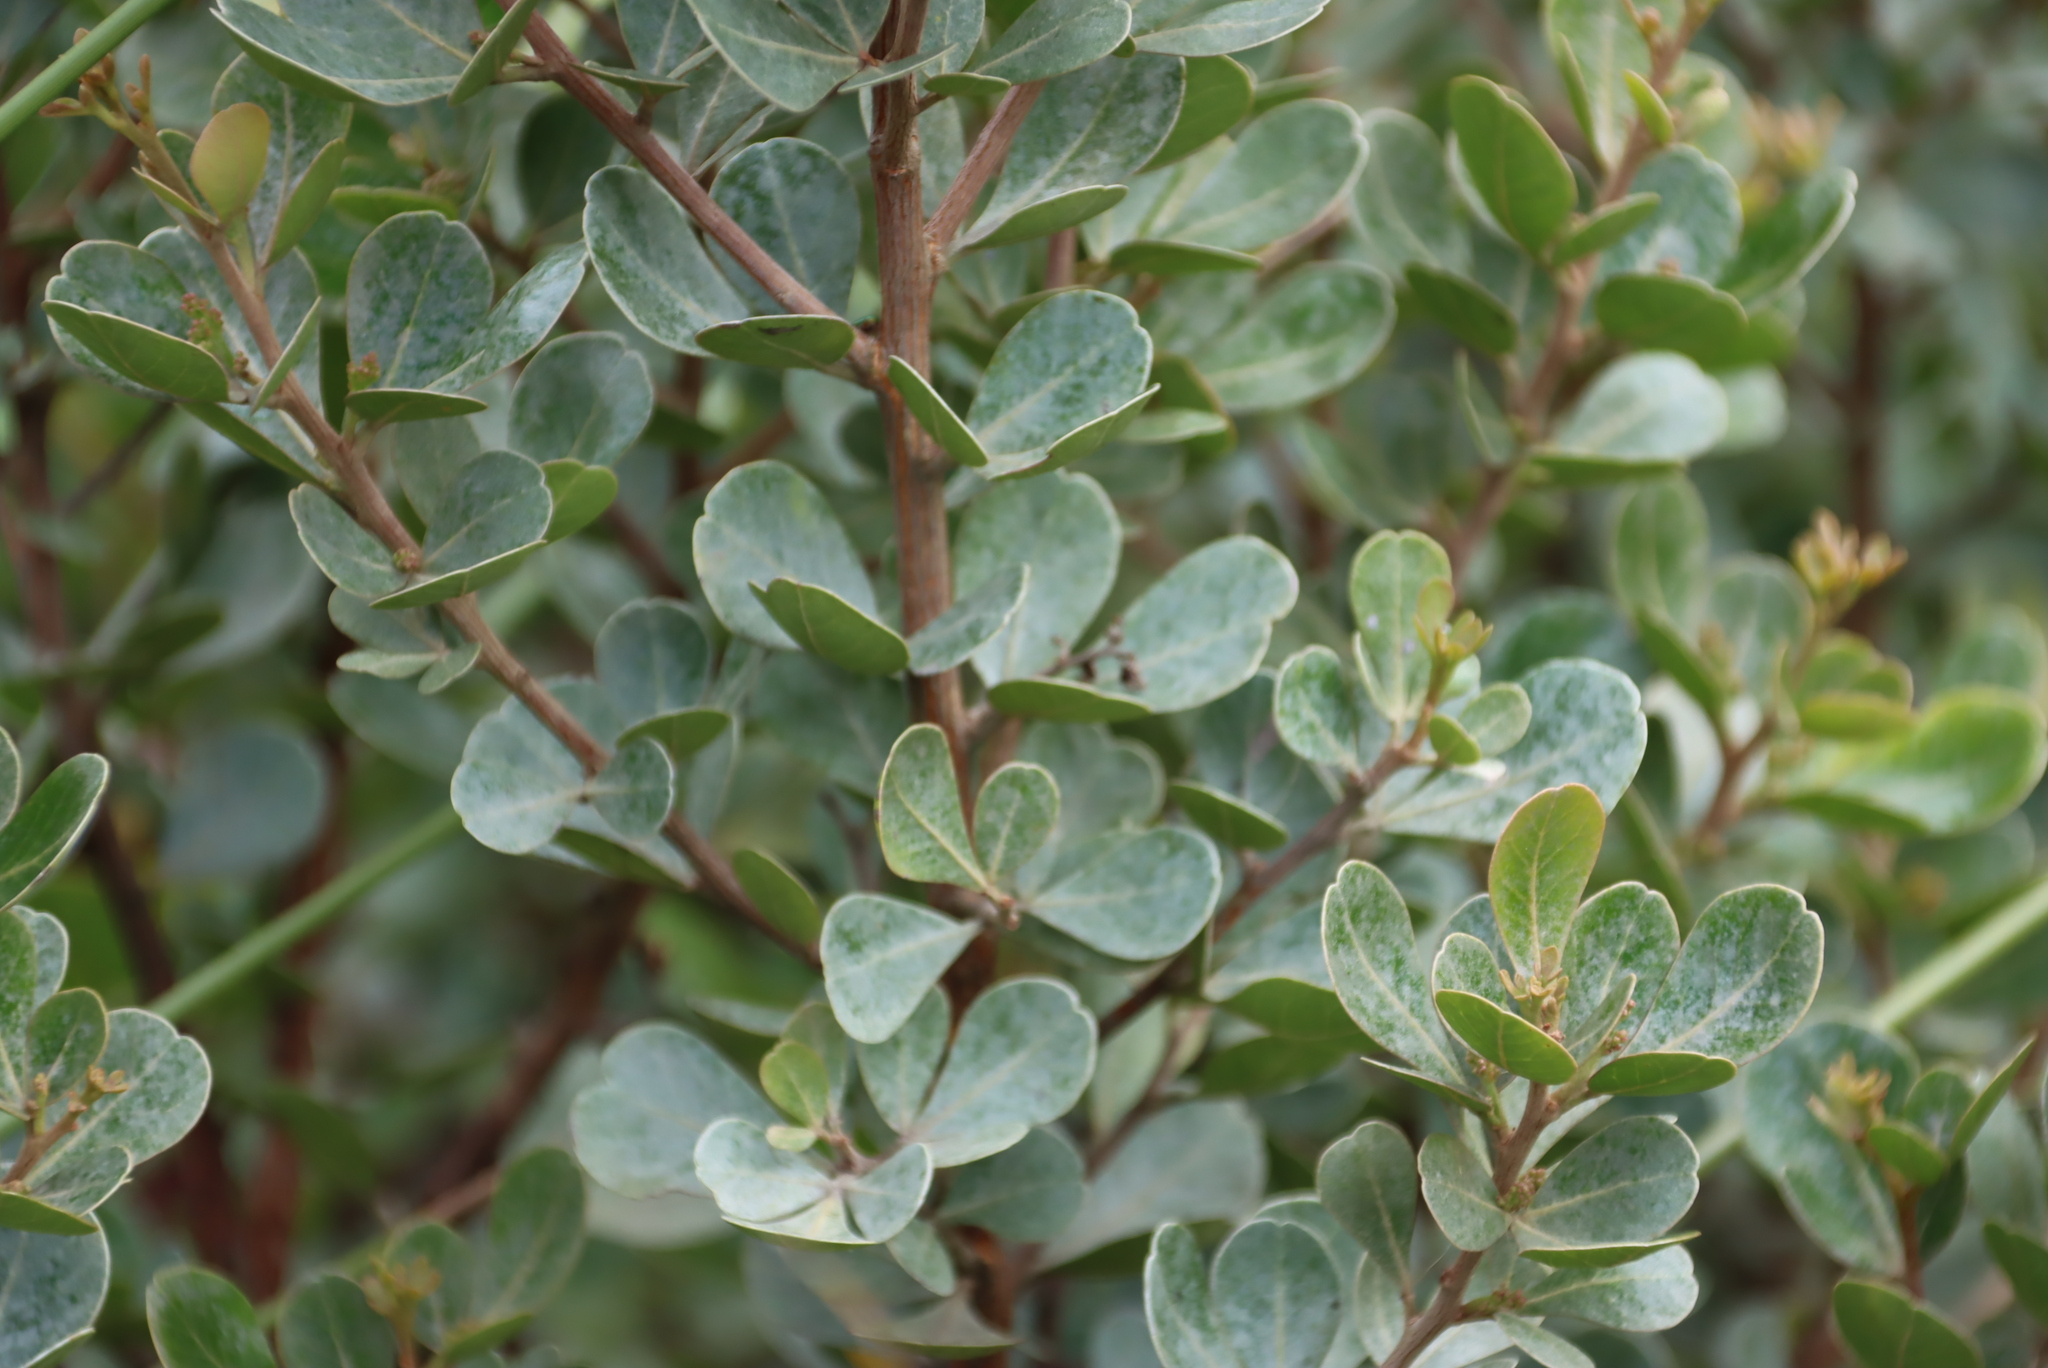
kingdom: Plantae
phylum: Tracheophyta
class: Magnoliopsida
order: Sapindales
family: Anacardiaceae
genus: Searsia
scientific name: Searsia lucida
